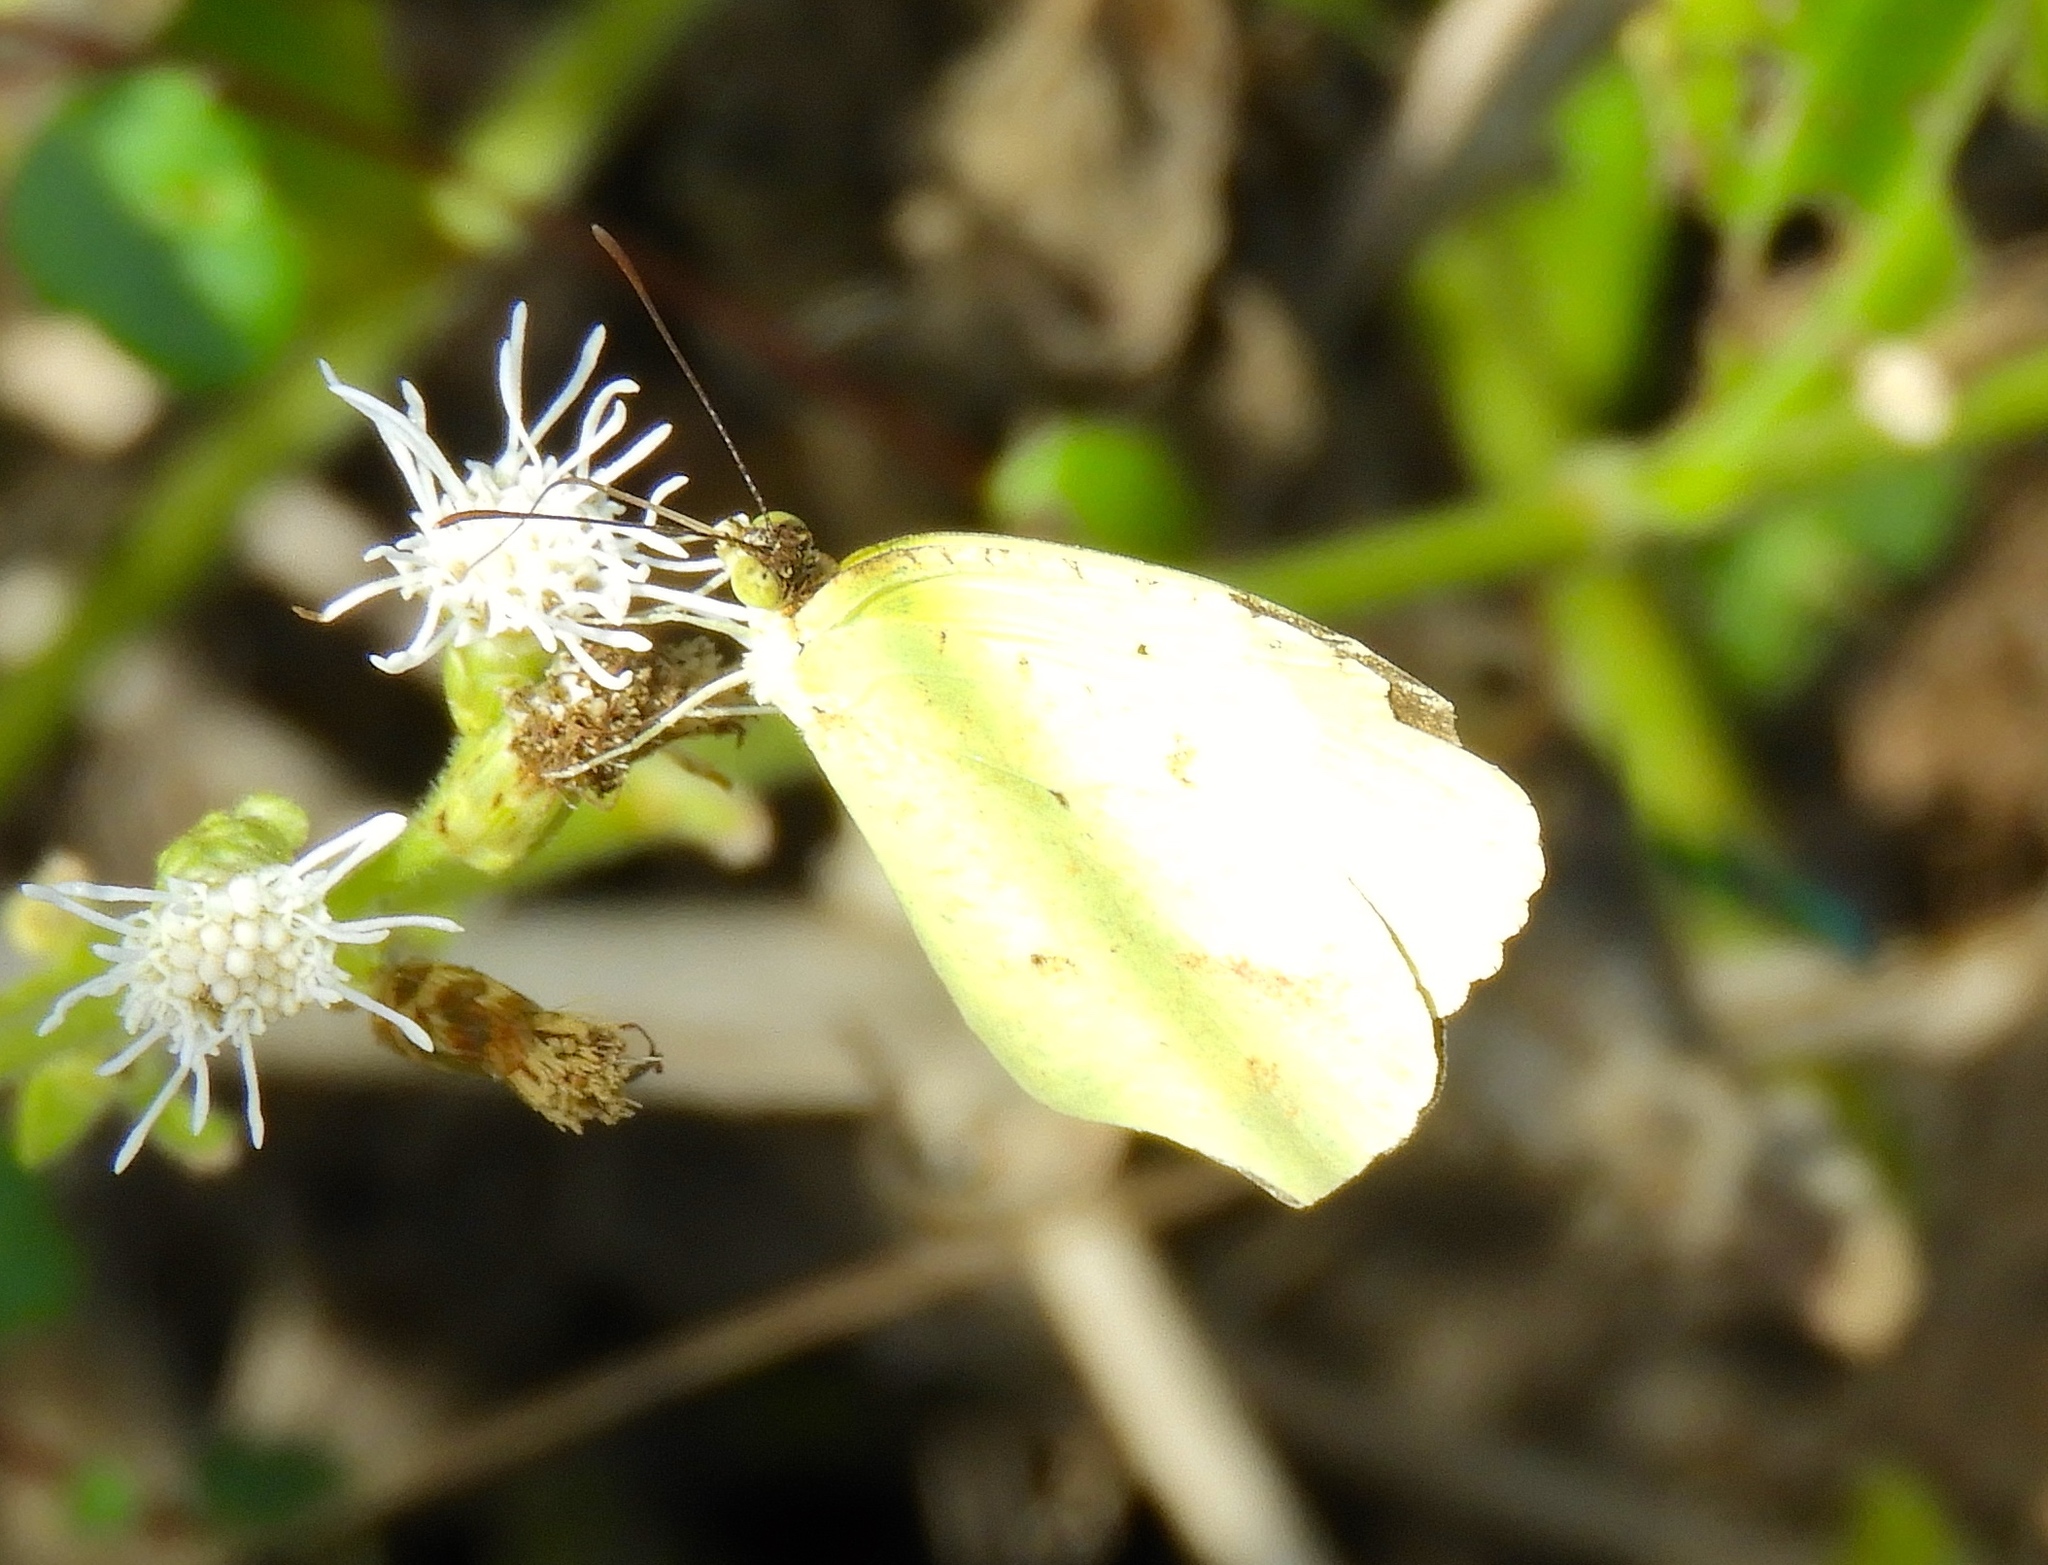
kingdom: Animalia
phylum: Arthropoda
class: Insecta
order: Lepidoptera
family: Pieridae
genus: Abaeis
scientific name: Abaeis boisduvaliana
